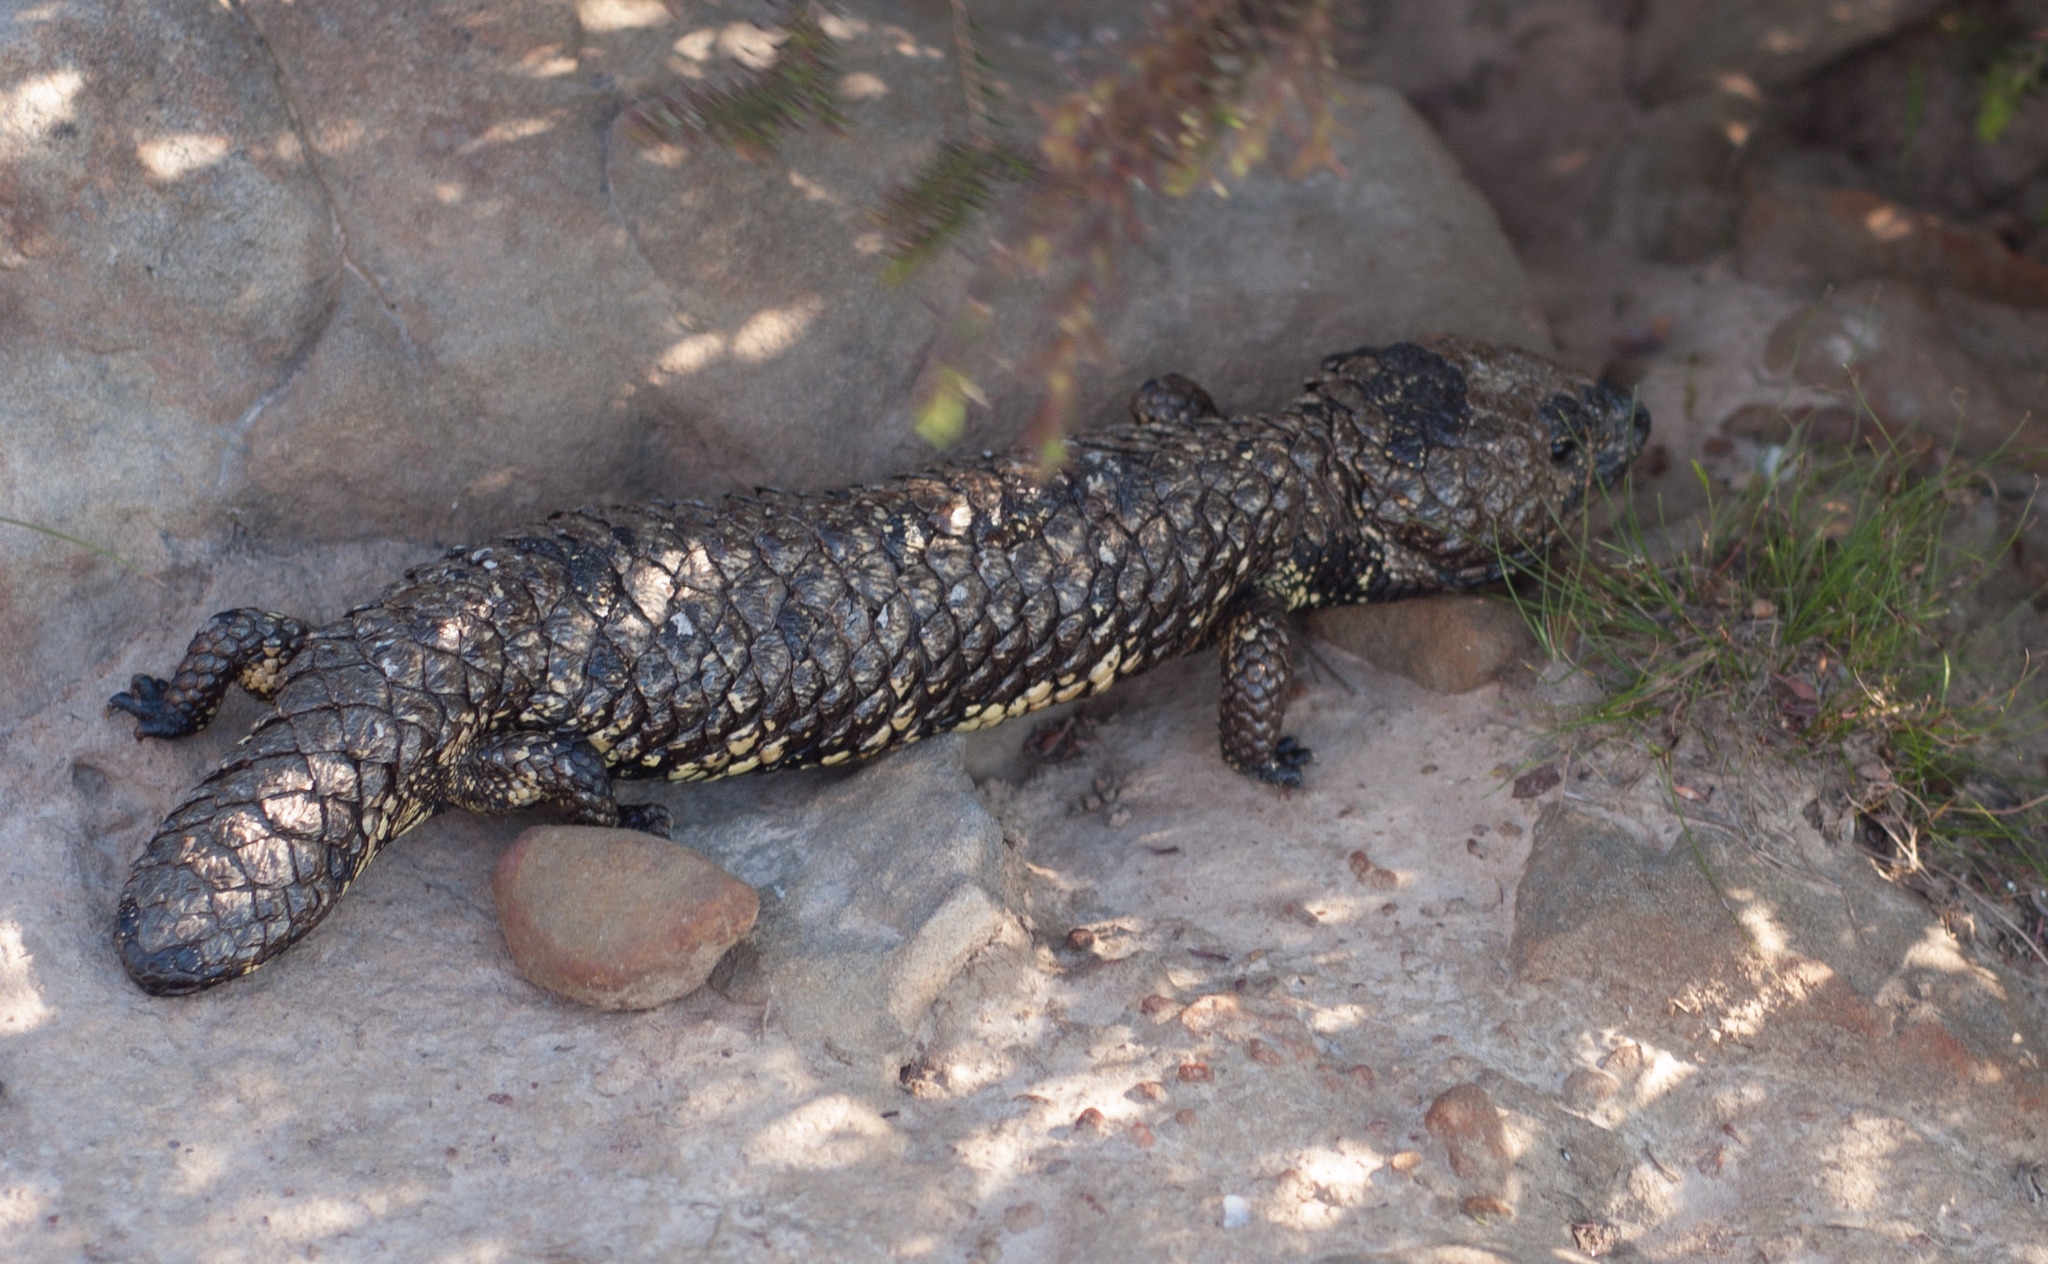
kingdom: Animalia
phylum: Chordata
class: Squamata
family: Scincidae
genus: Tiliqua
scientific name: Tiliqua rugosa
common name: Pinecone lizard
